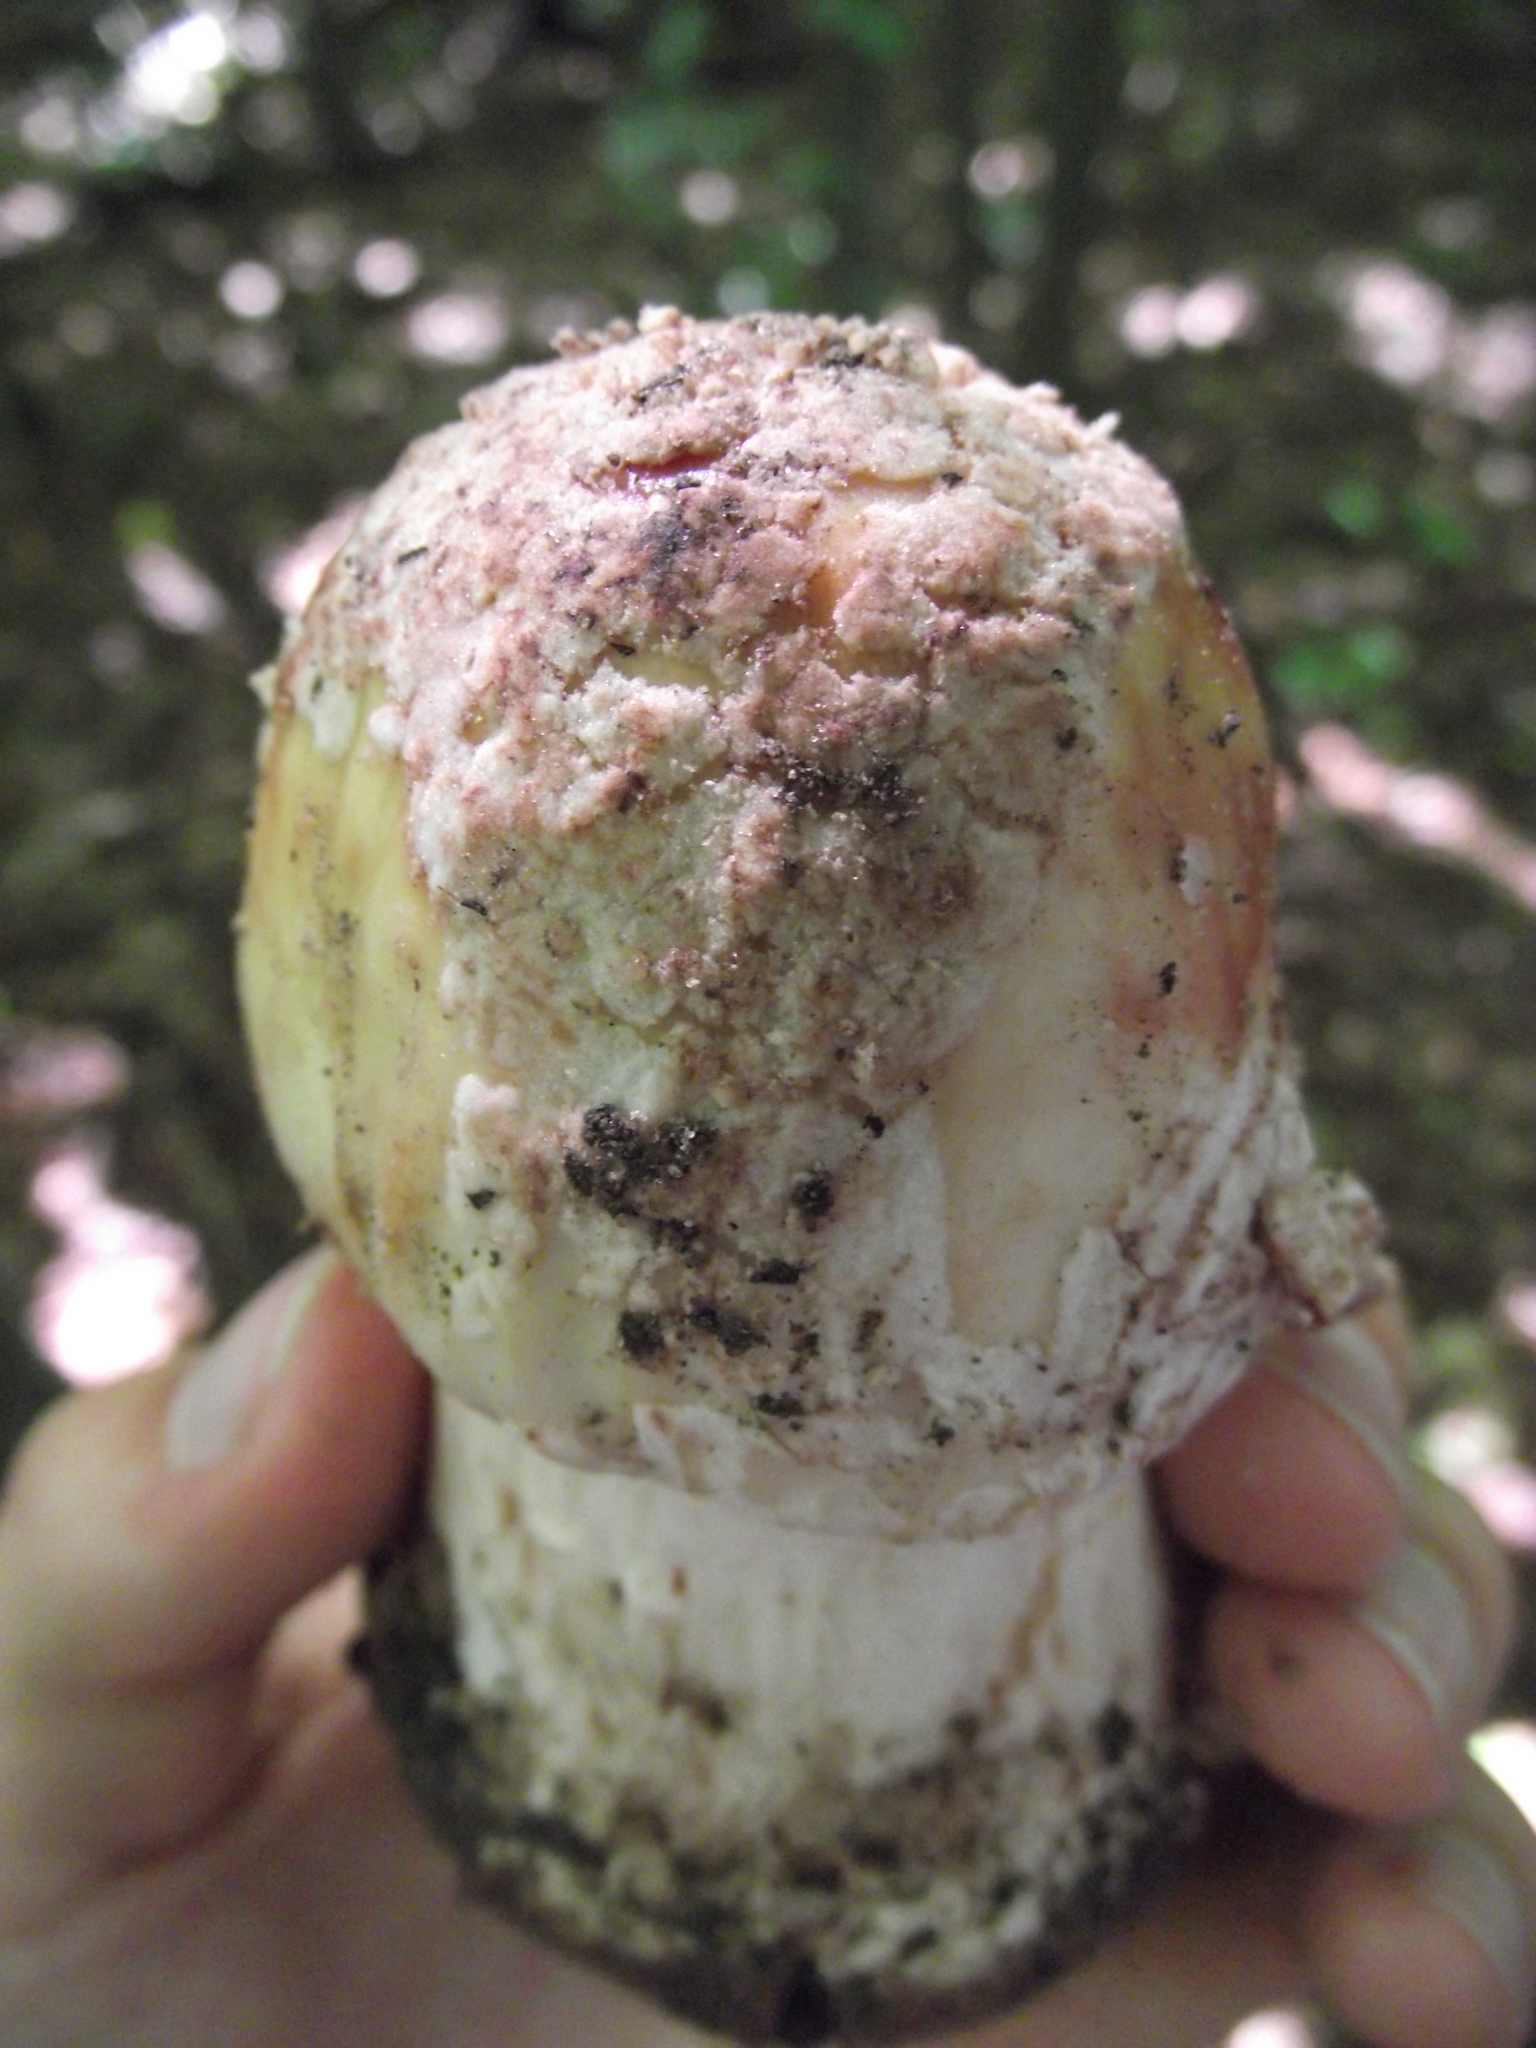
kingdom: Fungi
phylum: Basidiomycota
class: Agaricomycetes
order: Agaricales
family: Amanitaceae
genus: Amanita
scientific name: Amanita rubescens
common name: Blusher
